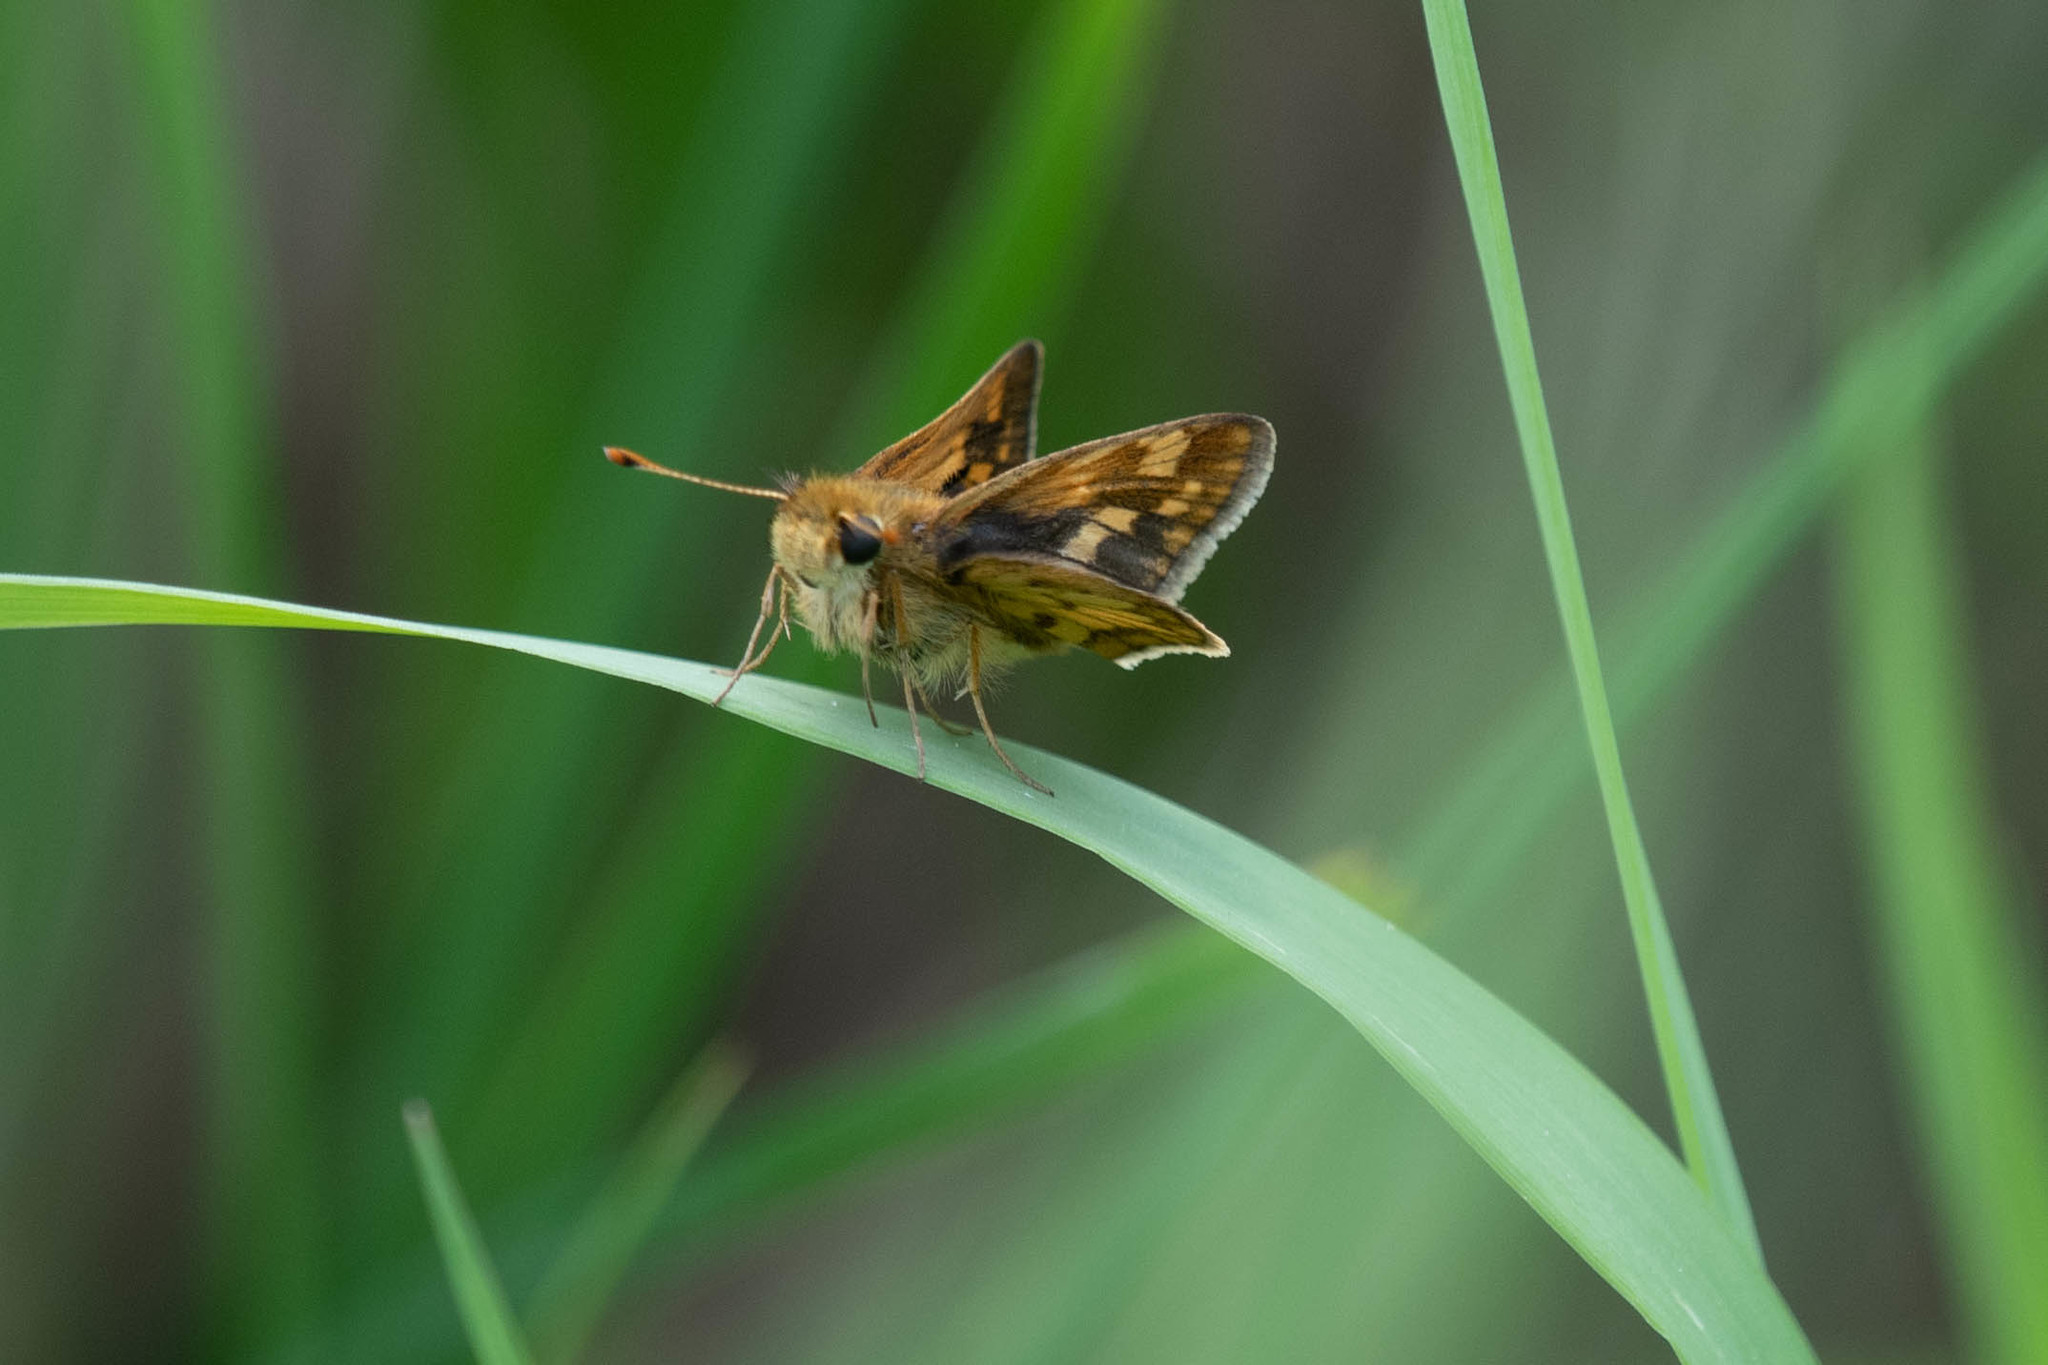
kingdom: Animalia
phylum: Arthropoda
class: Insecta
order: Lepidoptera
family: Hesperiidae
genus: Polites
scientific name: Polites coras
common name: Peck's skipper
